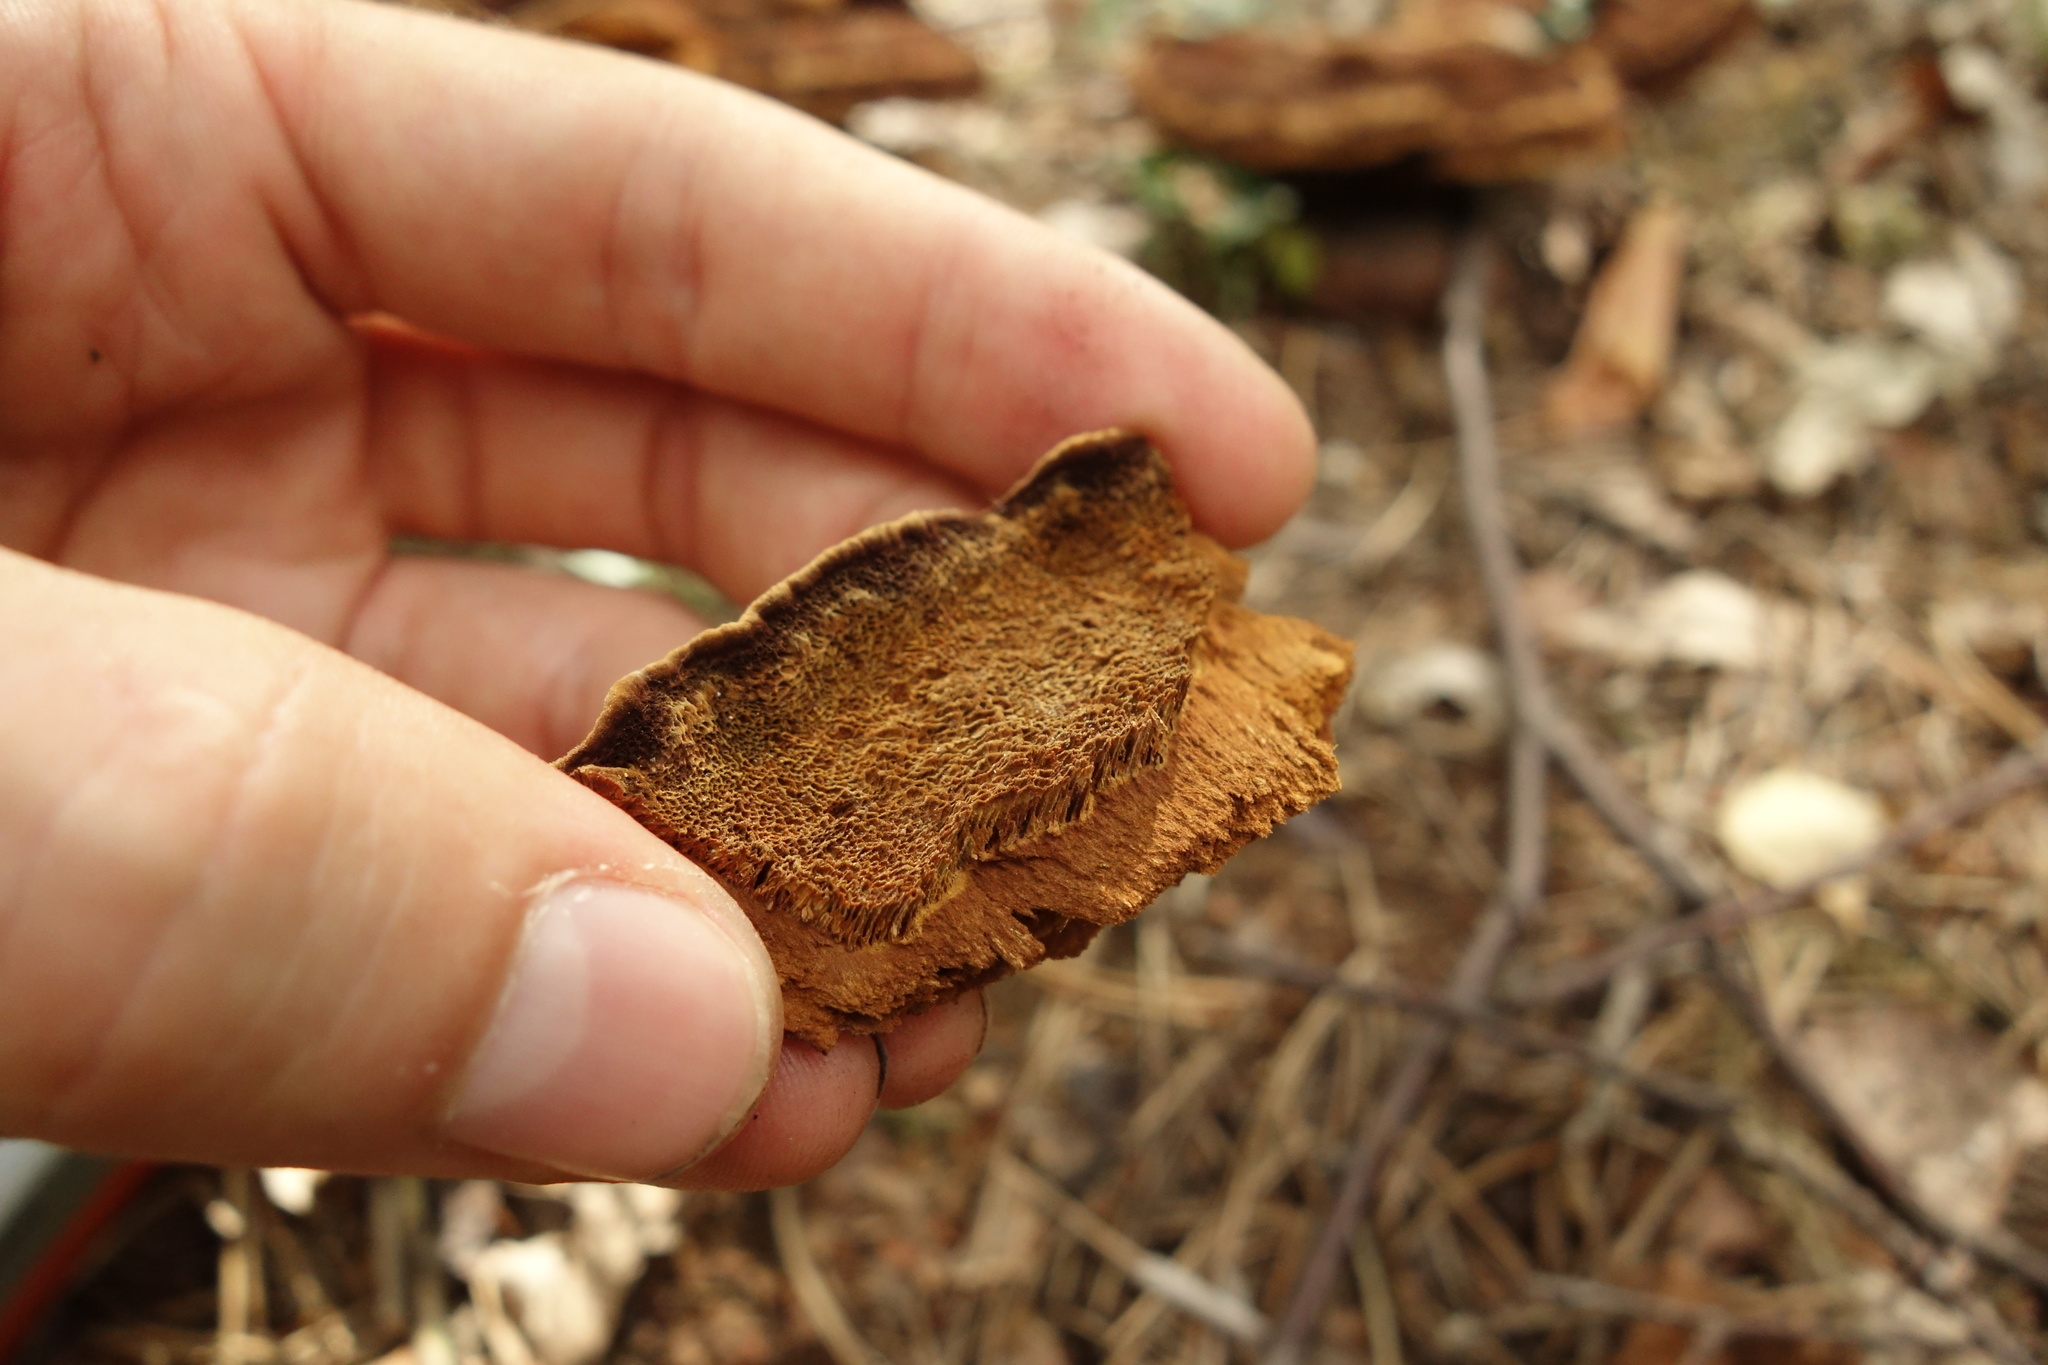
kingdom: Fungi
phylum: Basidiomycota
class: Agaricomycetes
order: Polyporales
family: Laetiporaceae
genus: Phaeolus
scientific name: Phaeolus schweinitzii
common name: Dyer's mazegill
